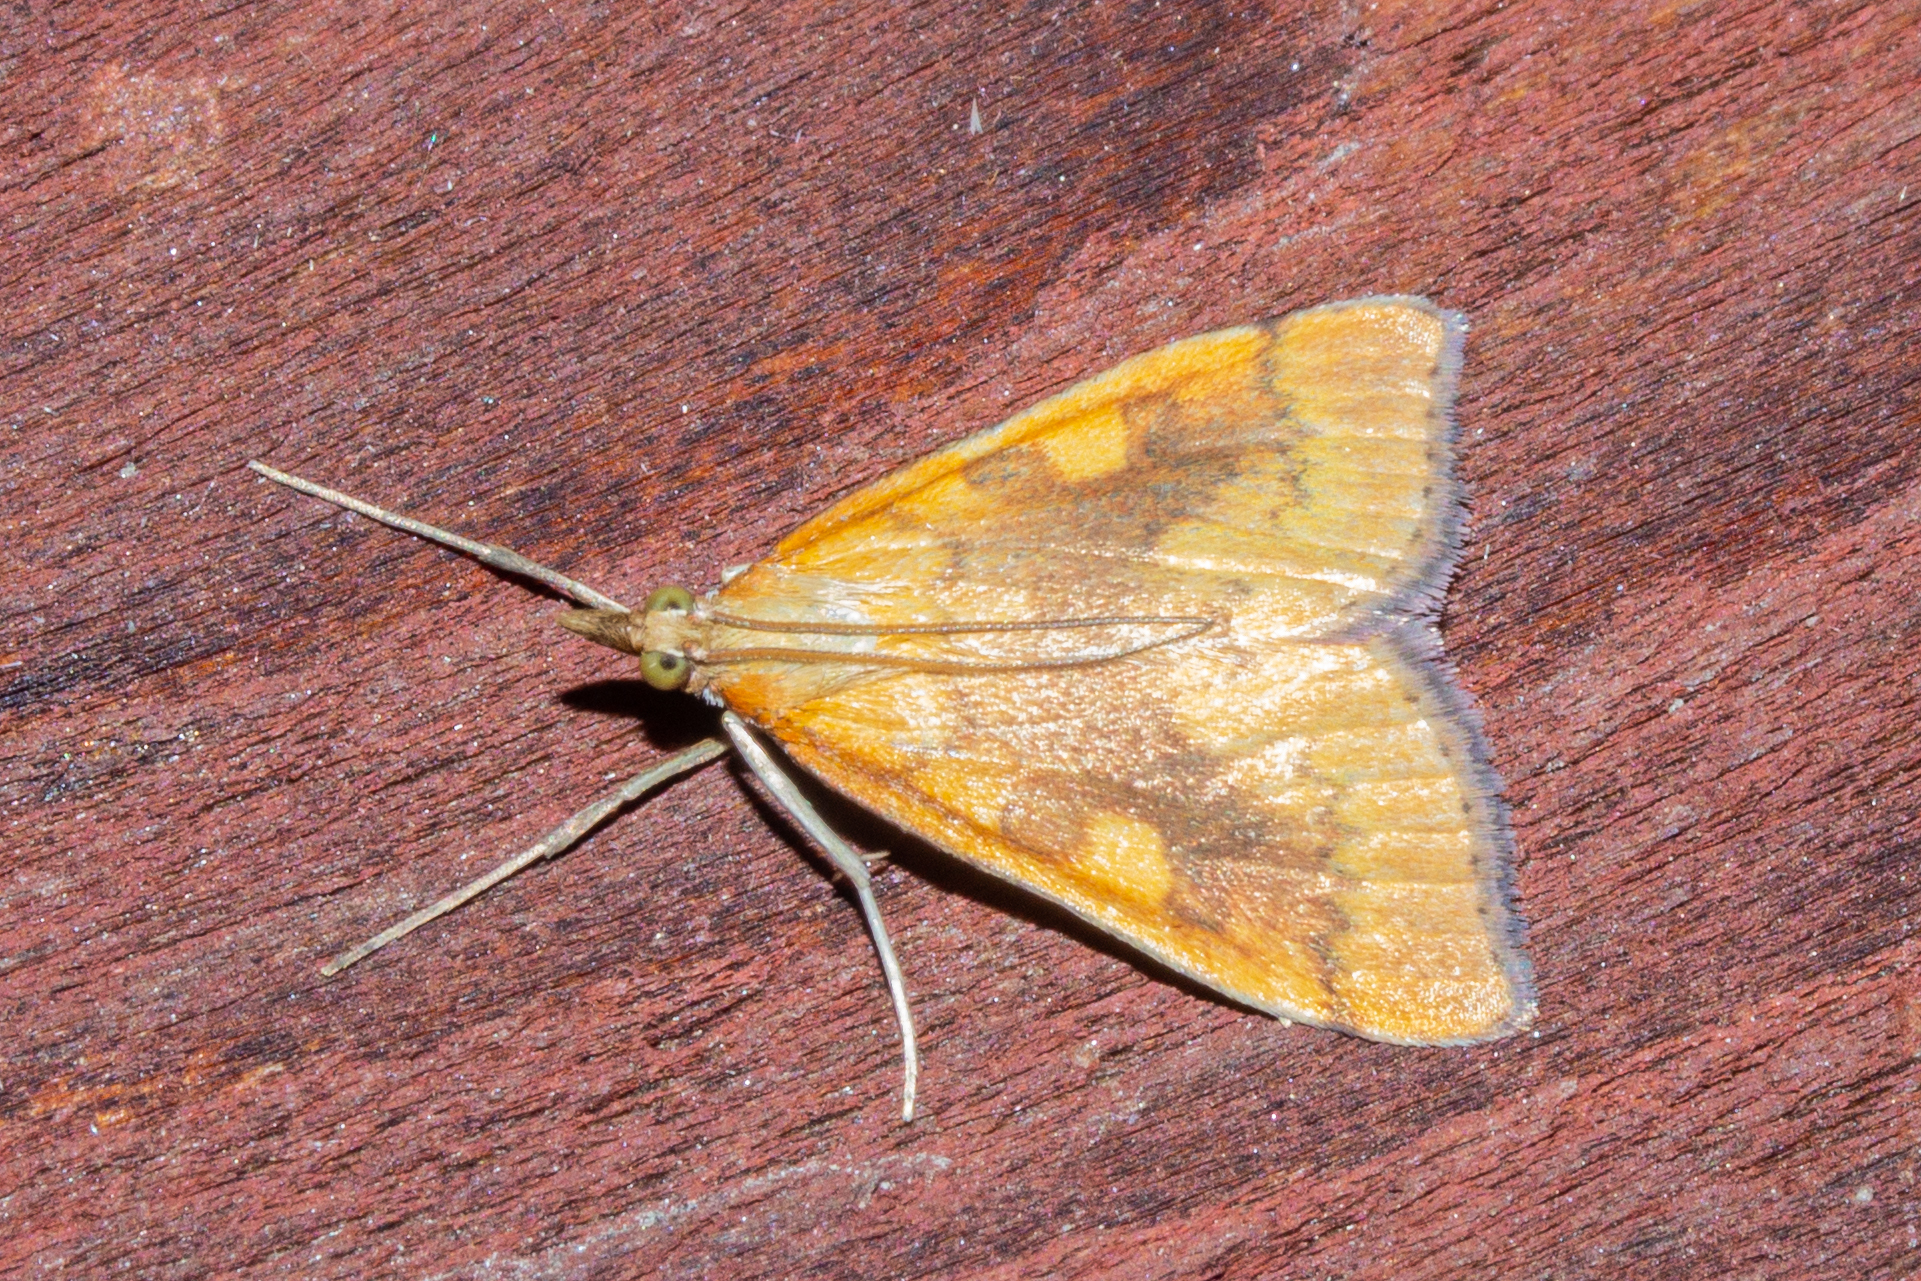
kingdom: Animalia
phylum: Arthropoda
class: Insecta
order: Lepidoptera
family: Crambidae
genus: Udea
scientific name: Udea Mnesictena flavidalis
